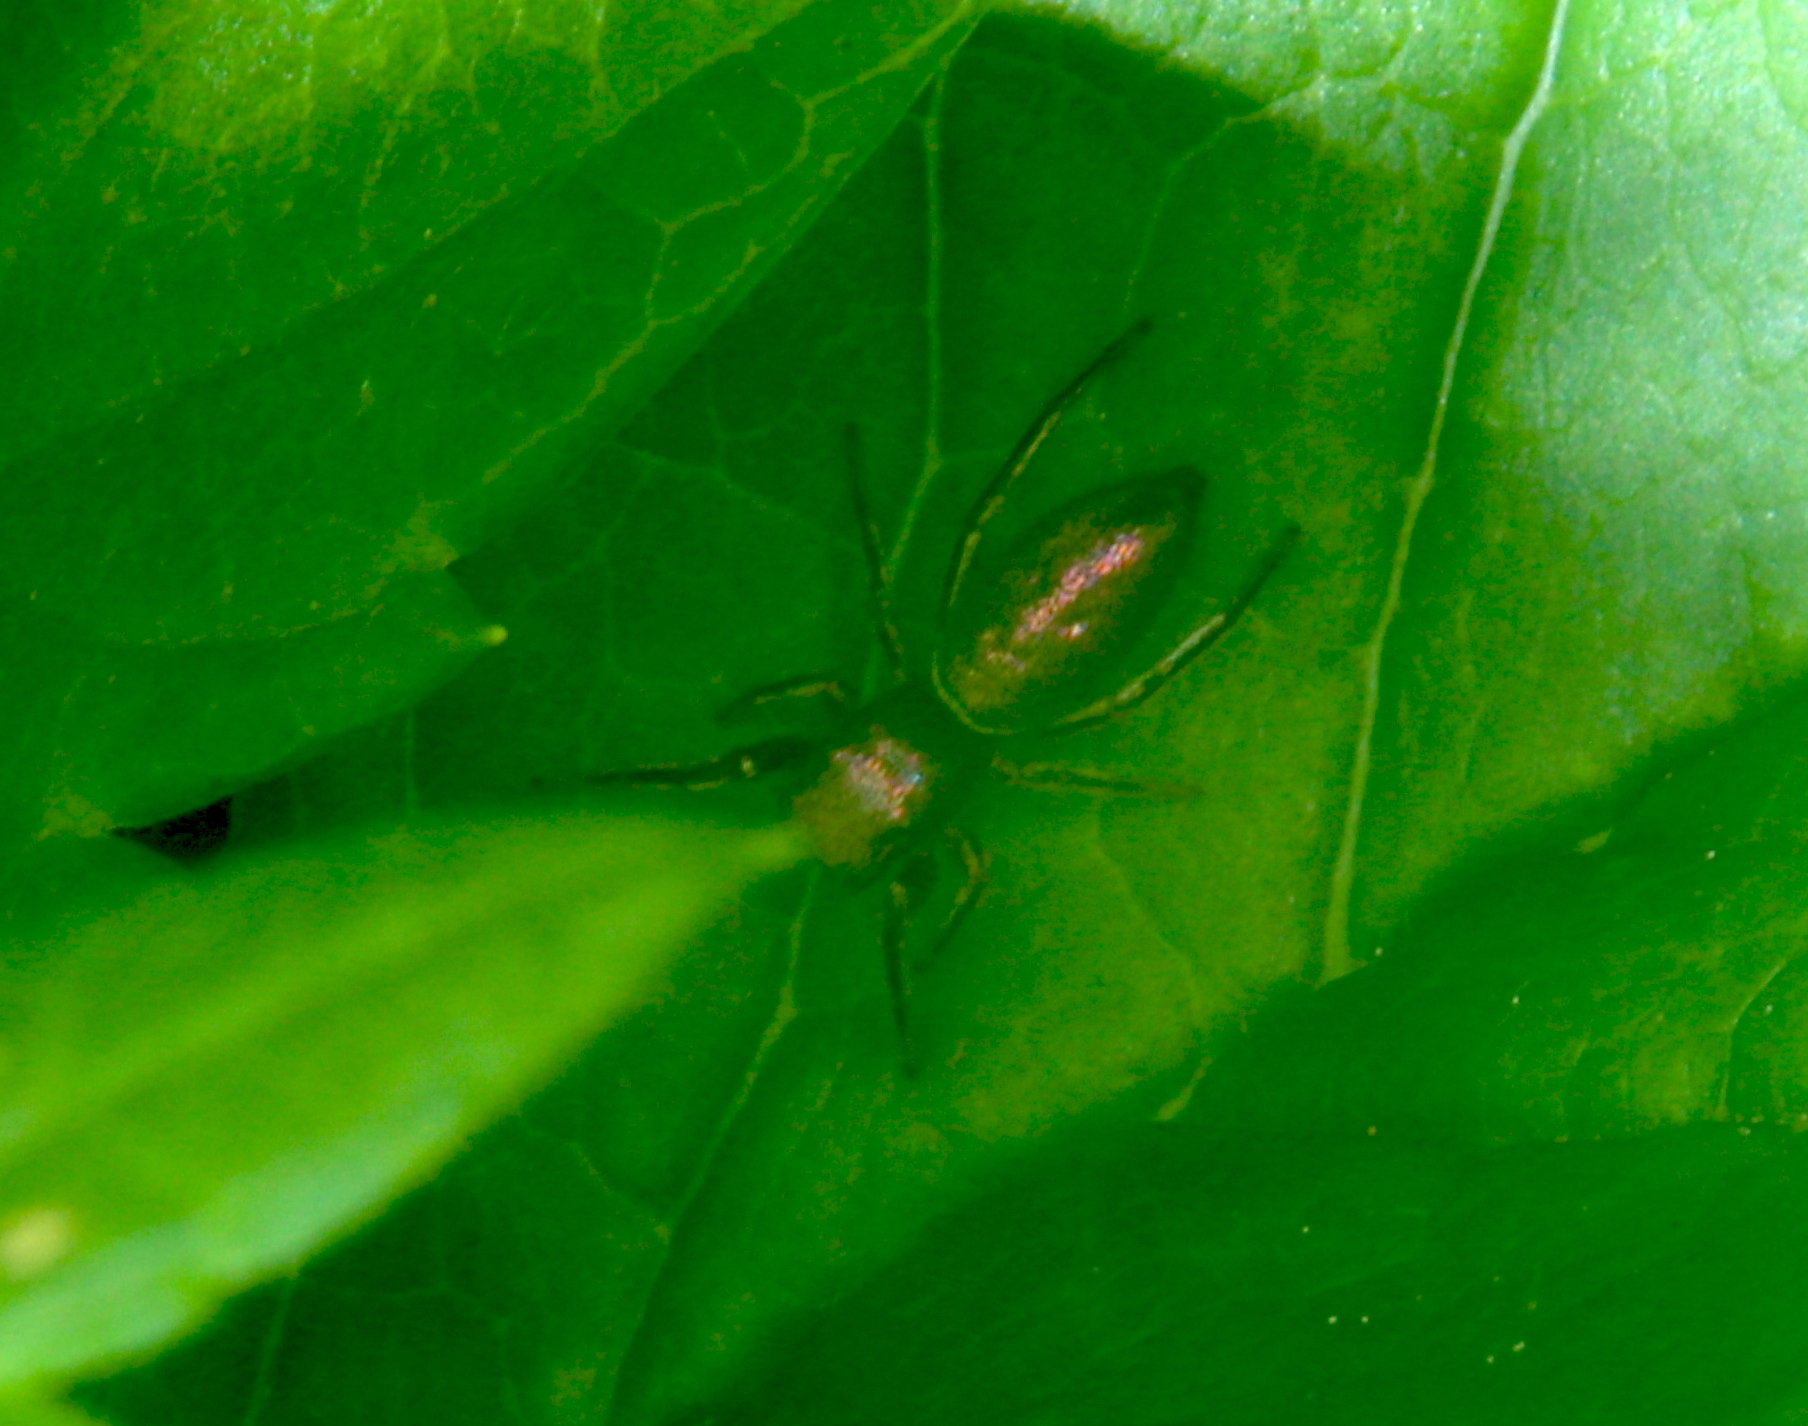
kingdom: Animalia
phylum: Arthropoda
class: Arachnida
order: Araneae
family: Salticidae
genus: Tutelina
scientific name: Tutelina elegans
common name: Thin-spined jumping spider
